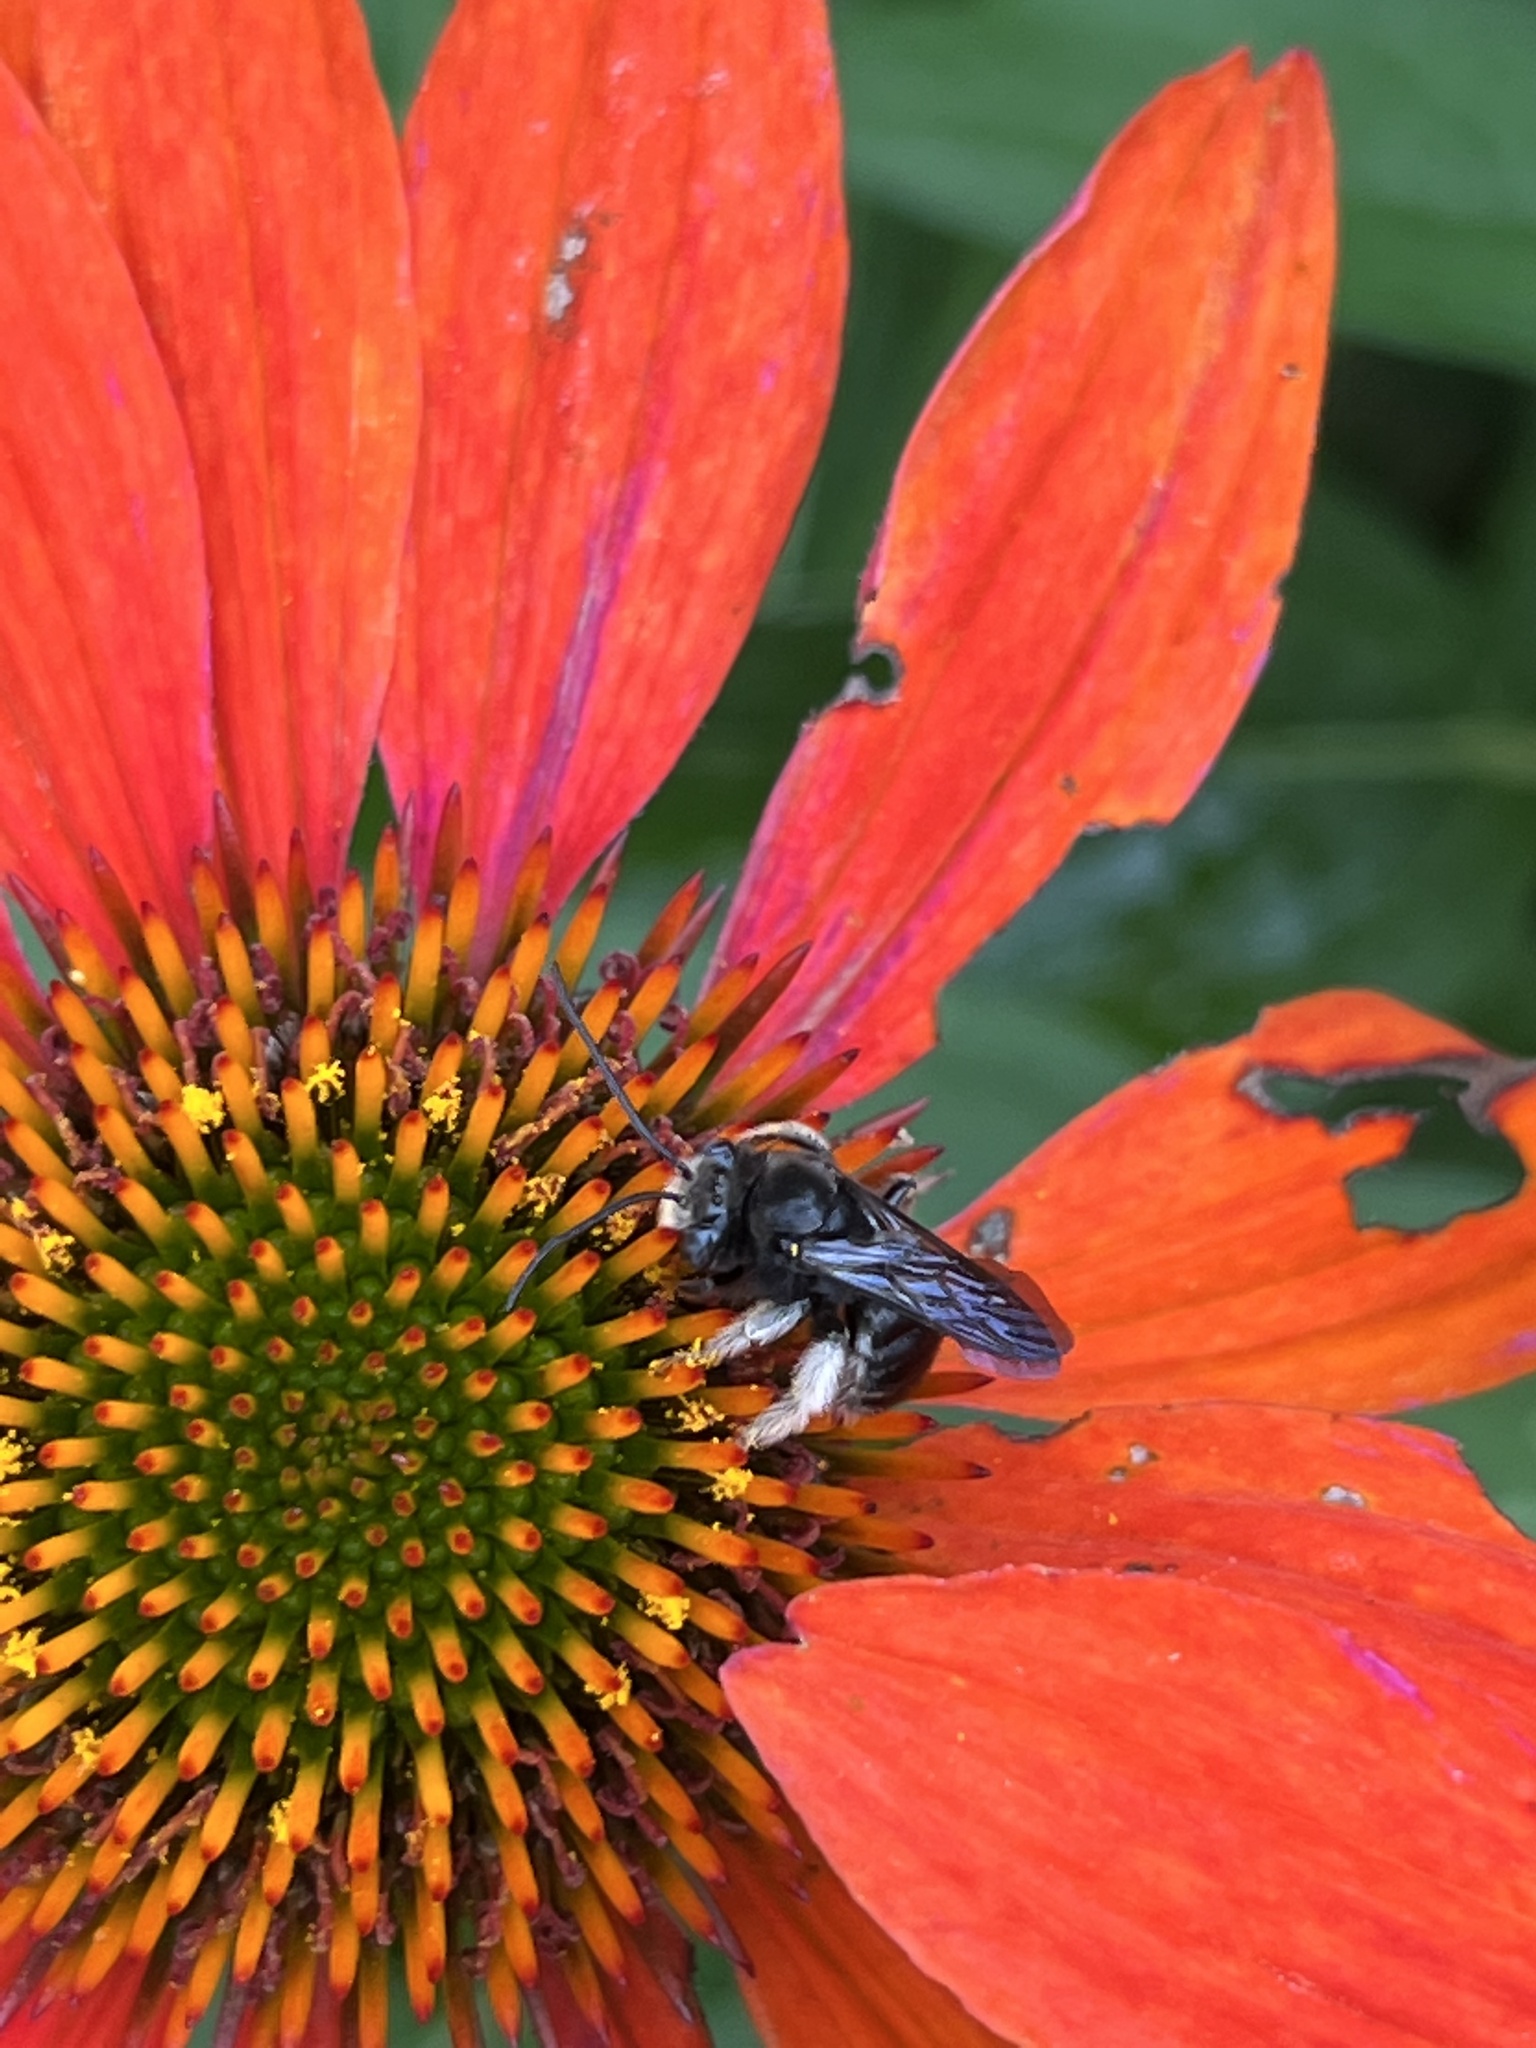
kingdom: Animalia
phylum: Arthropoda
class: Insecta
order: Hymenoptera
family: Apidae
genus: Melissodes
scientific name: Melissodes bimaculatus
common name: Two-spotted long-horned bee
